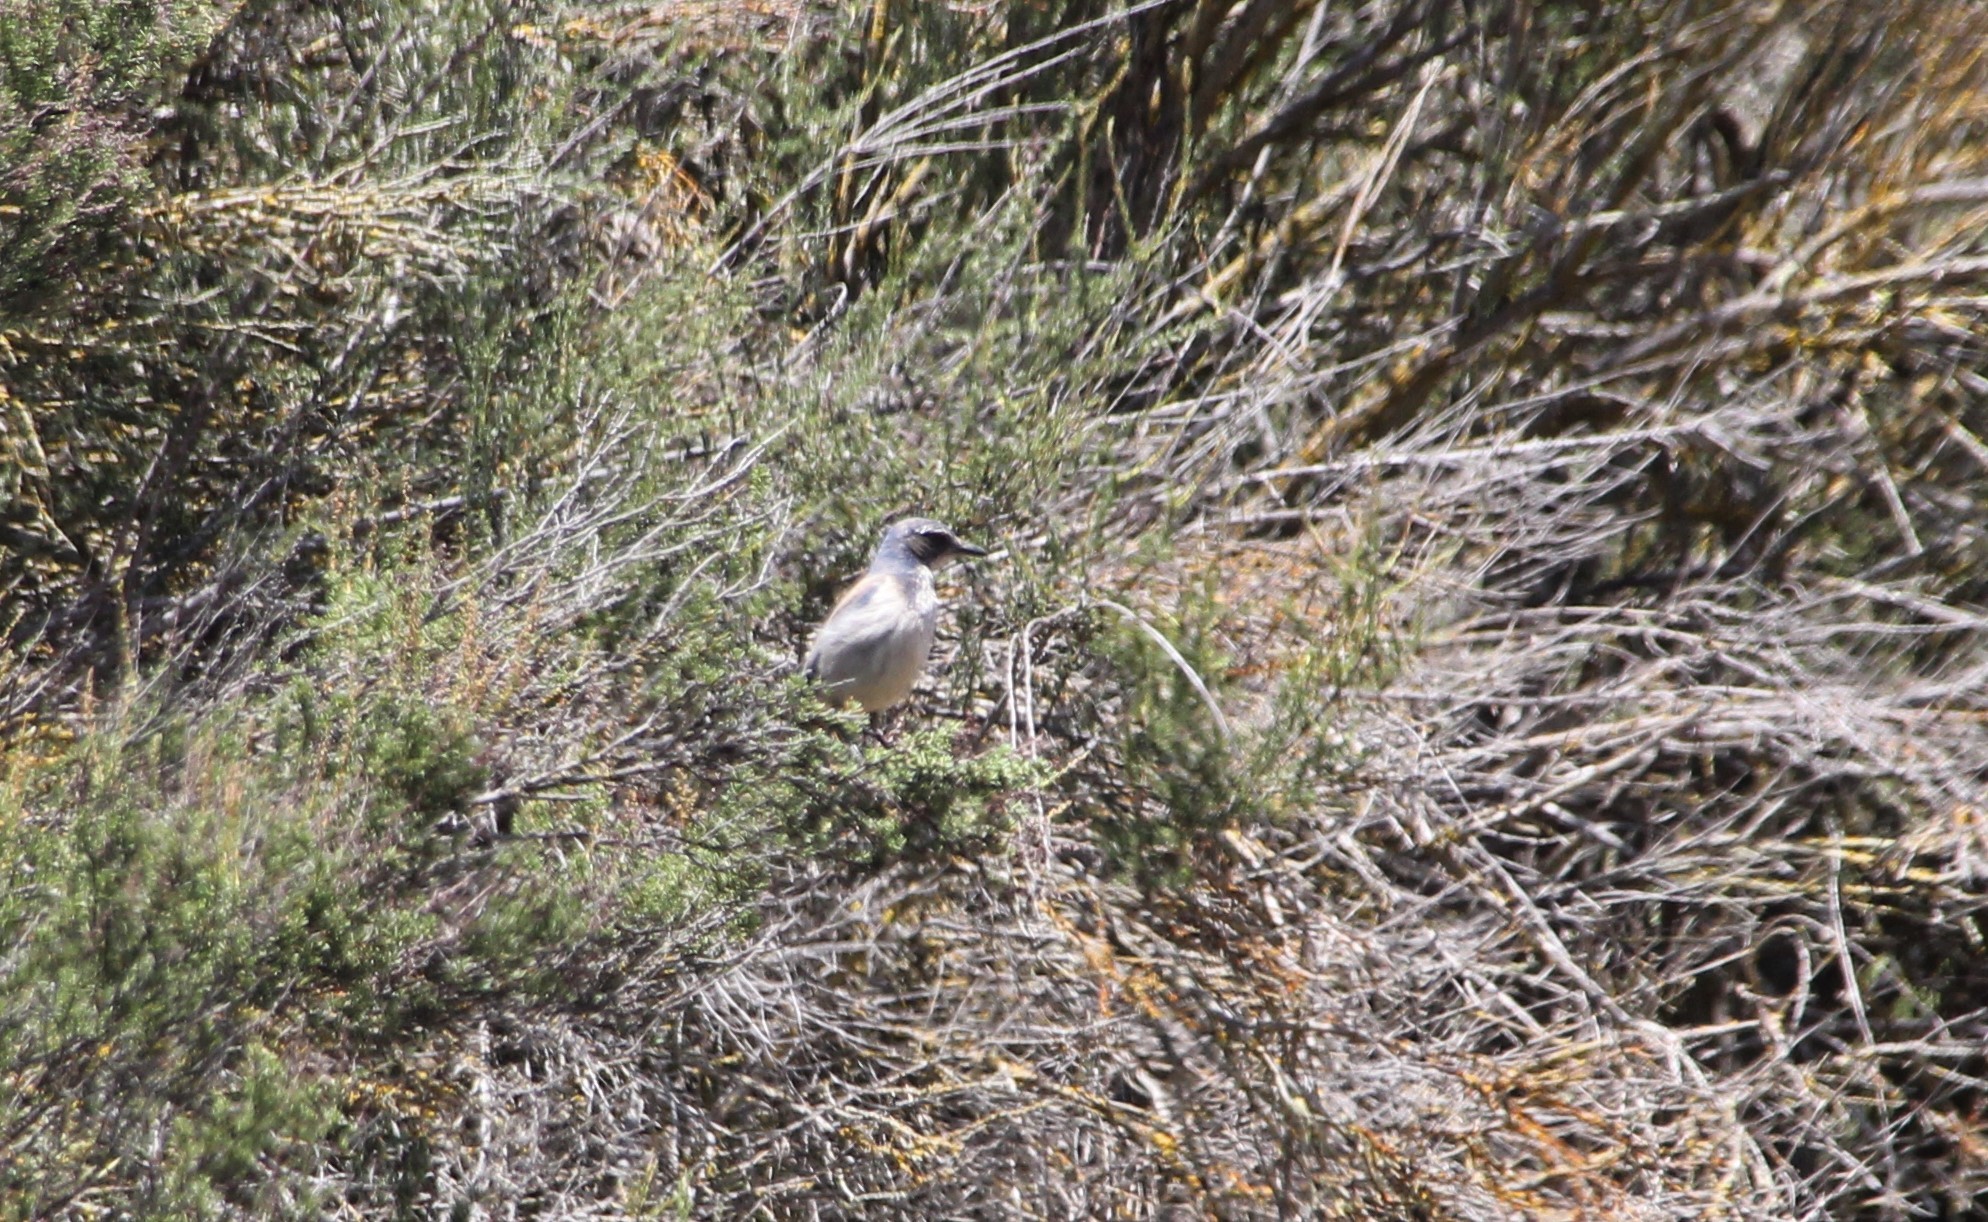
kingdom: Animalia
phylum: Chordata
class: Aves
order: Passeriformes
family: Corvidae
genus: Aphelocoma
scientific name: Aphelocoma californica
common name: California scrub-jay
